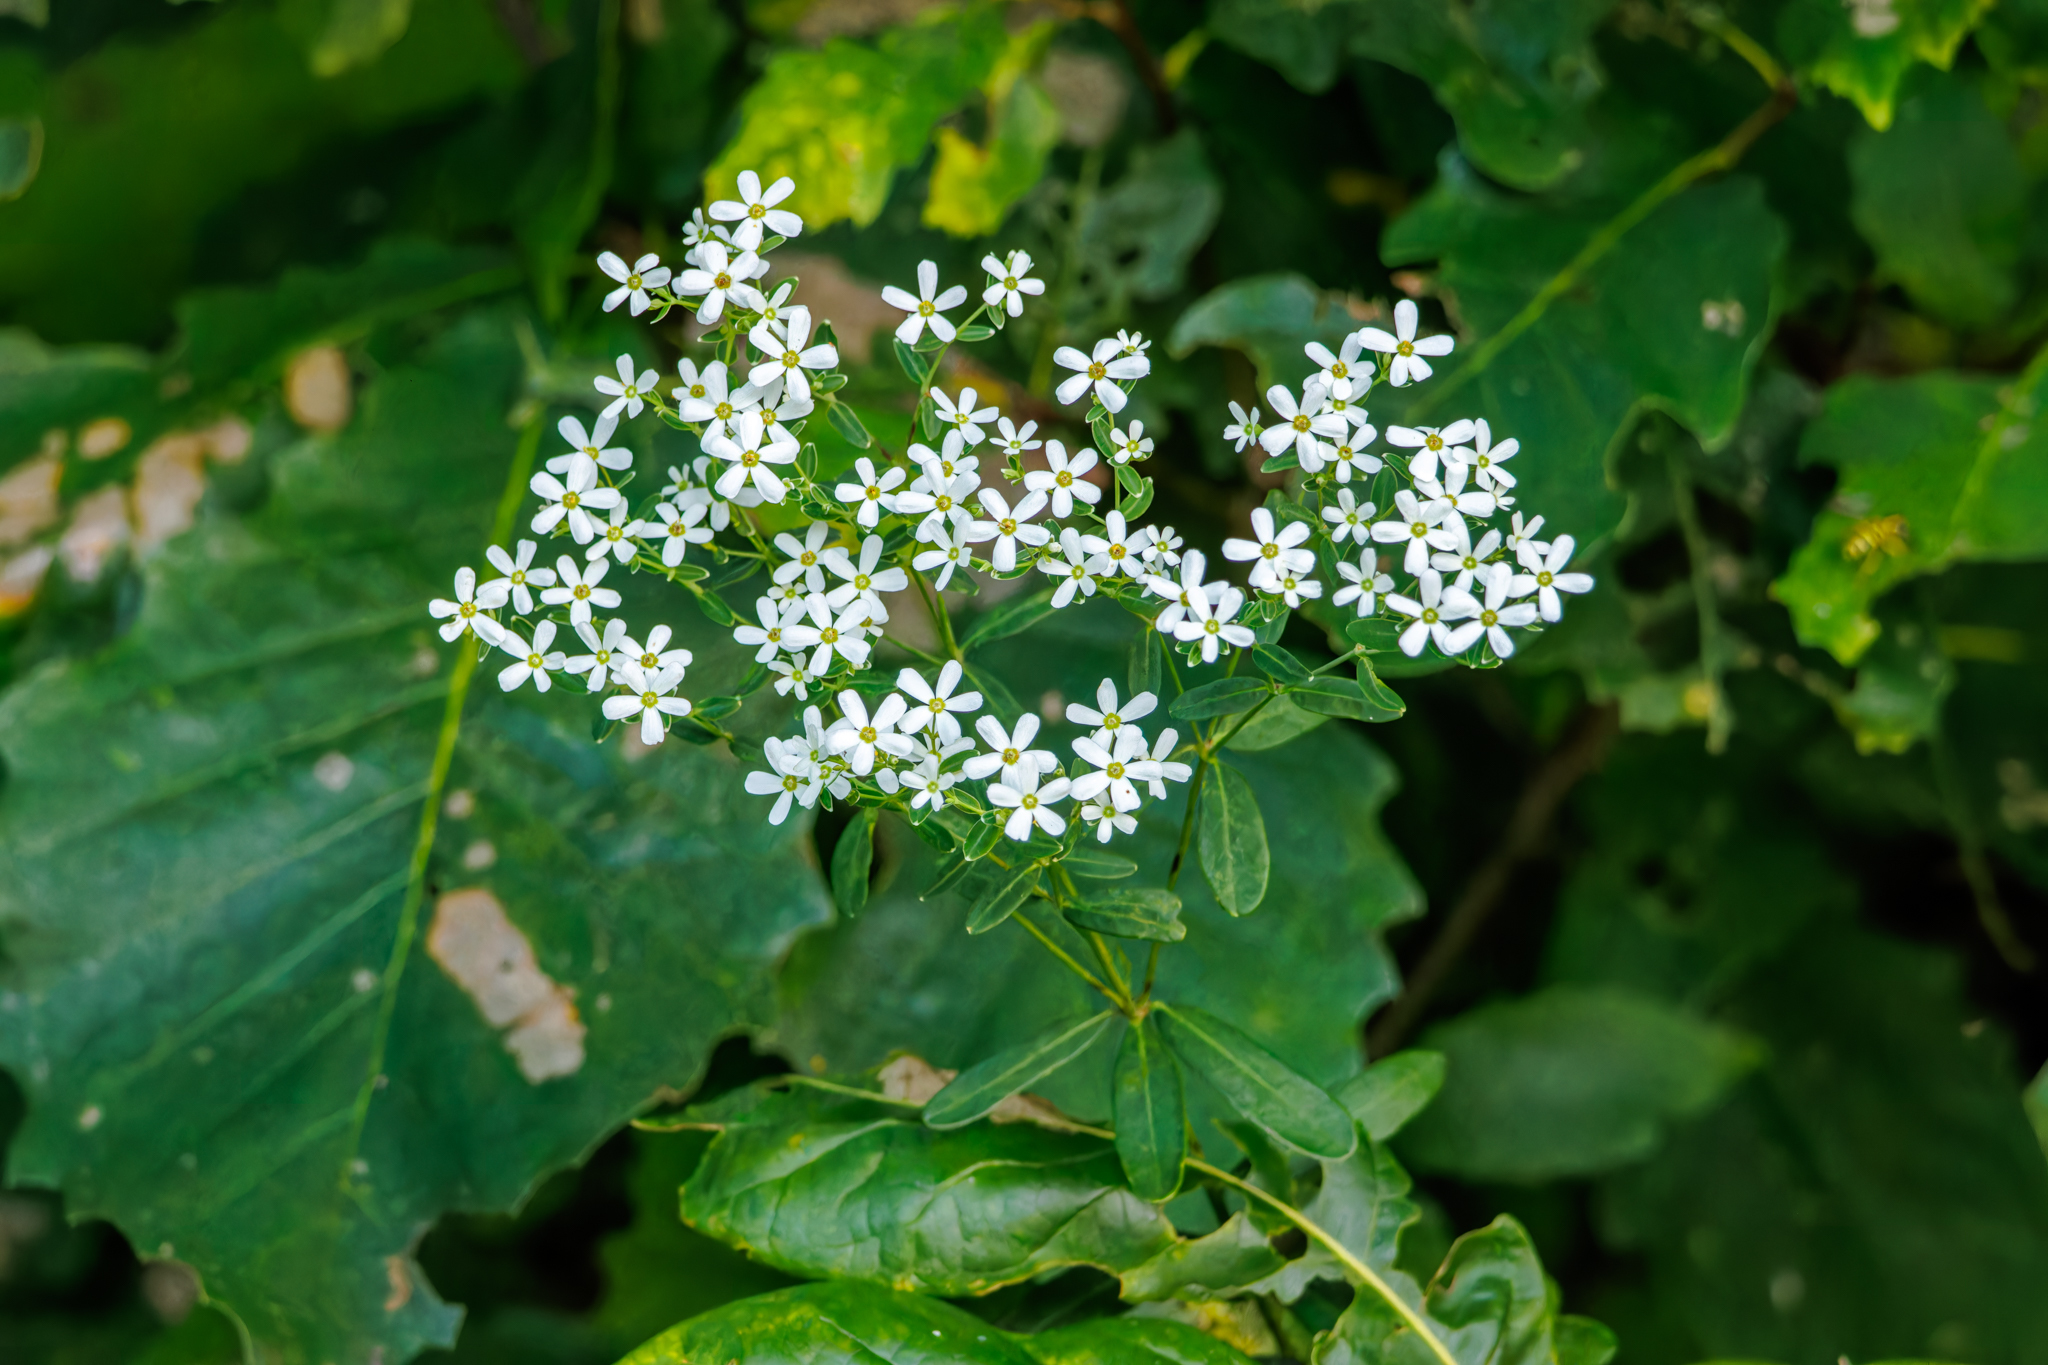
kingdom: Plantae
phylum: Tracheophyta
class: Magnoliopsida
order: Malpighiales
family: Euphorbiaceae
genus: Euphorbia
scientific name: Euphorbia corollata
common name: Flowering spurge
